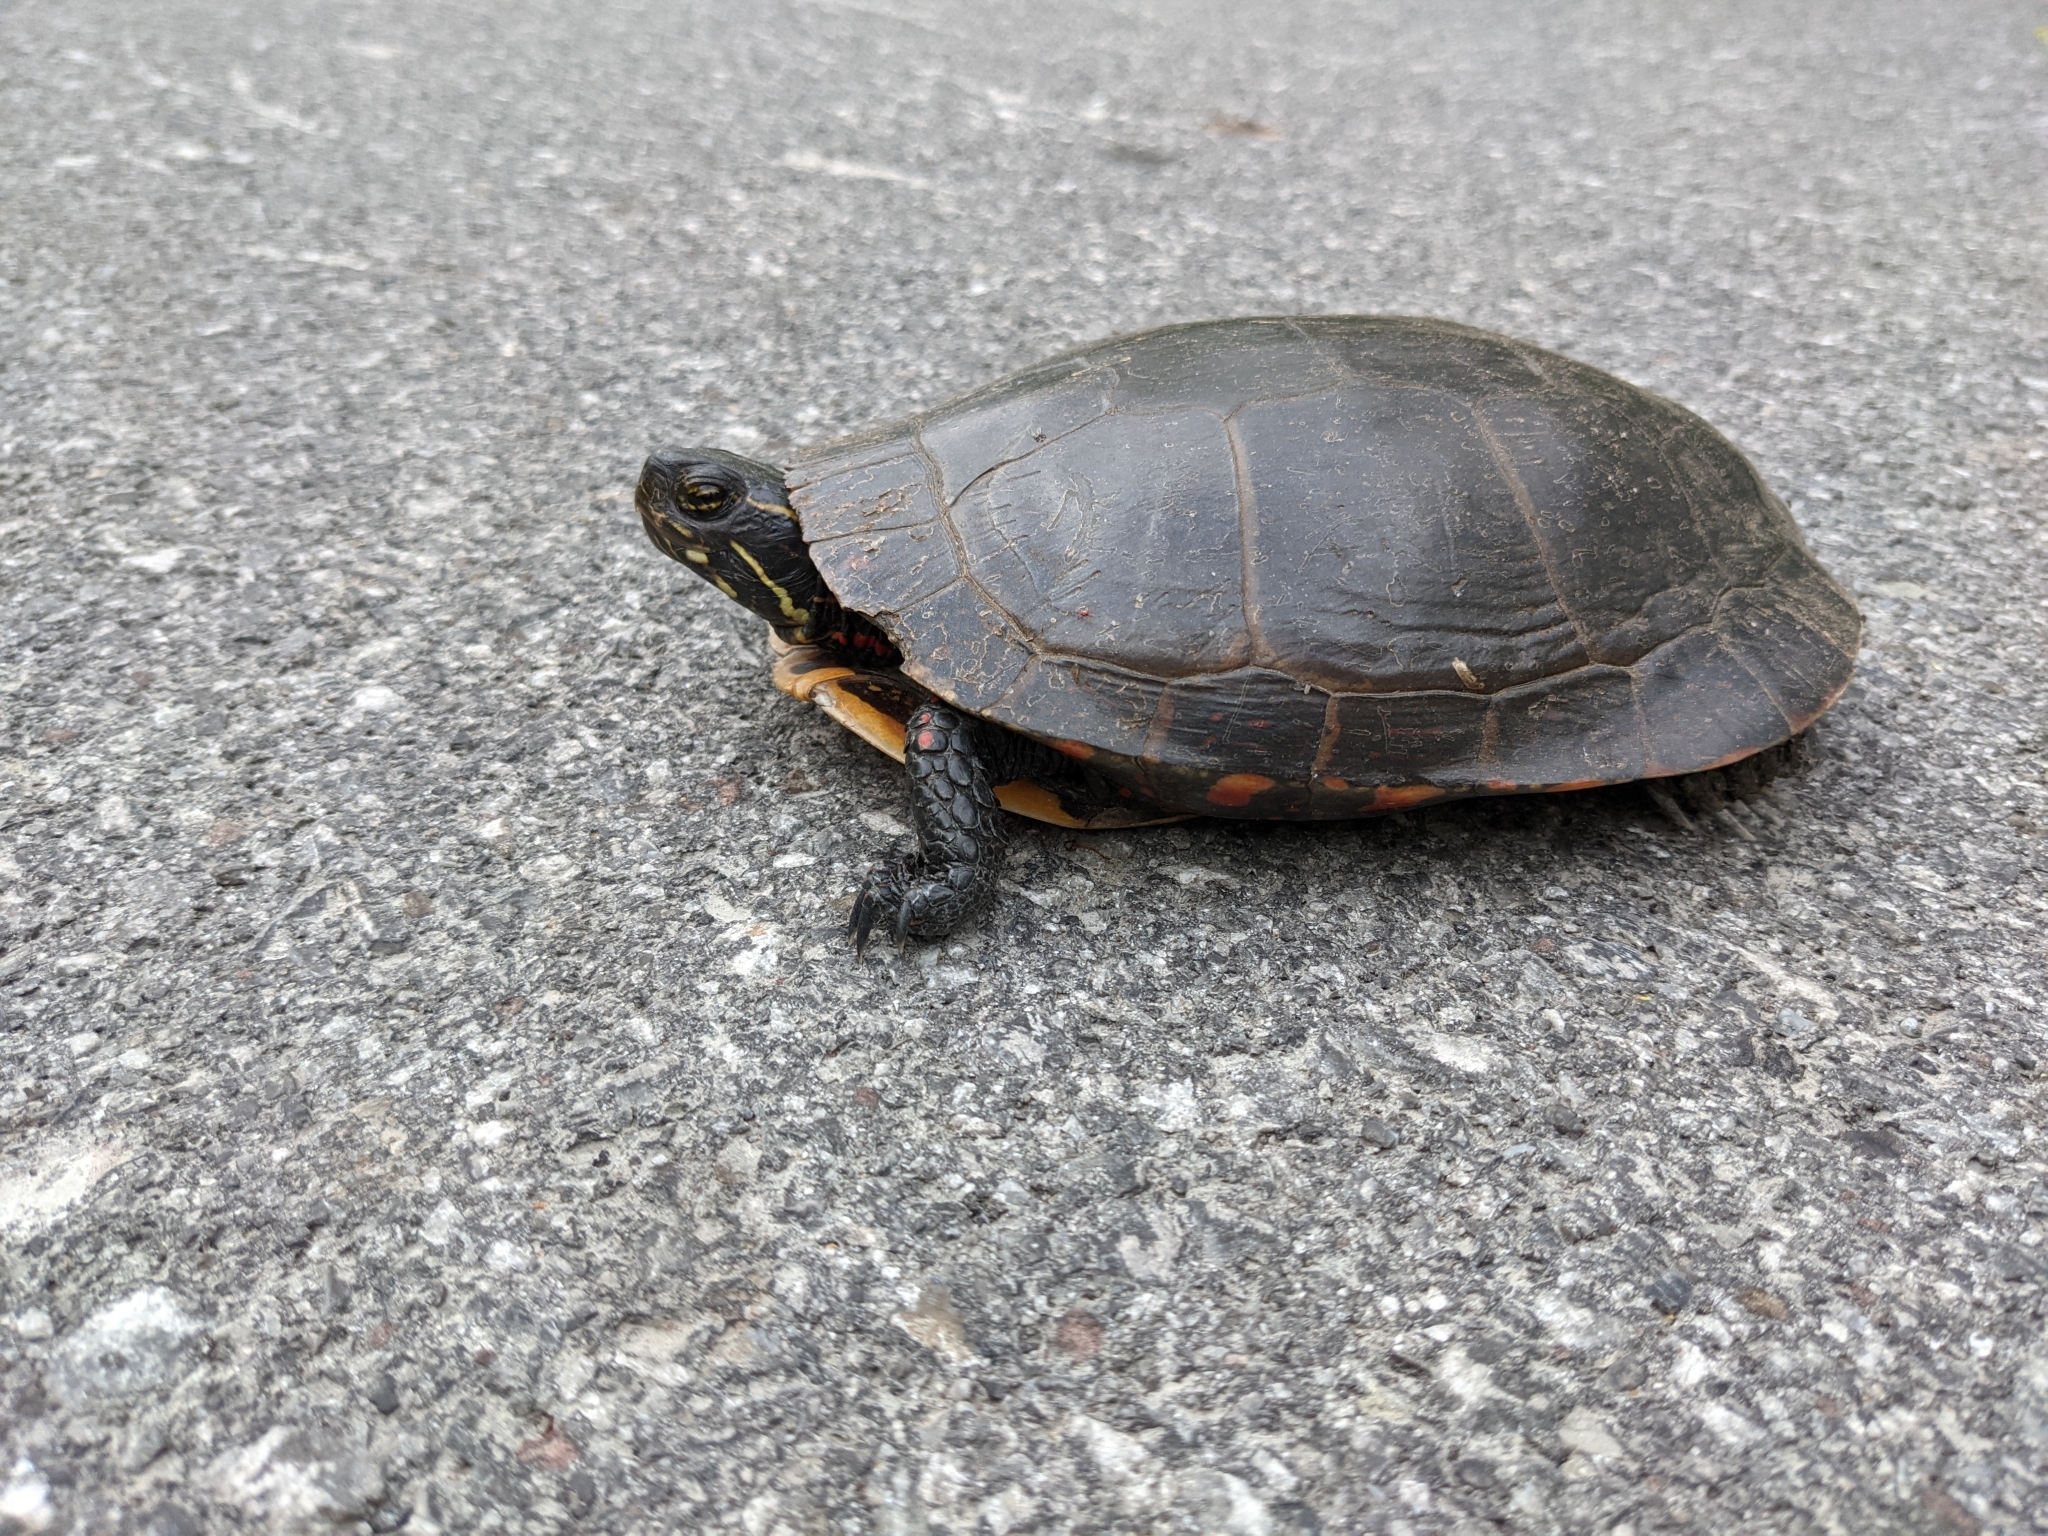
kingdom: Animalia
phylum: Chordata
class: Testudines
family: Emydidae
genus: Chrysemys
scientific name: Chrysemys picta
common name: Painted turtle
